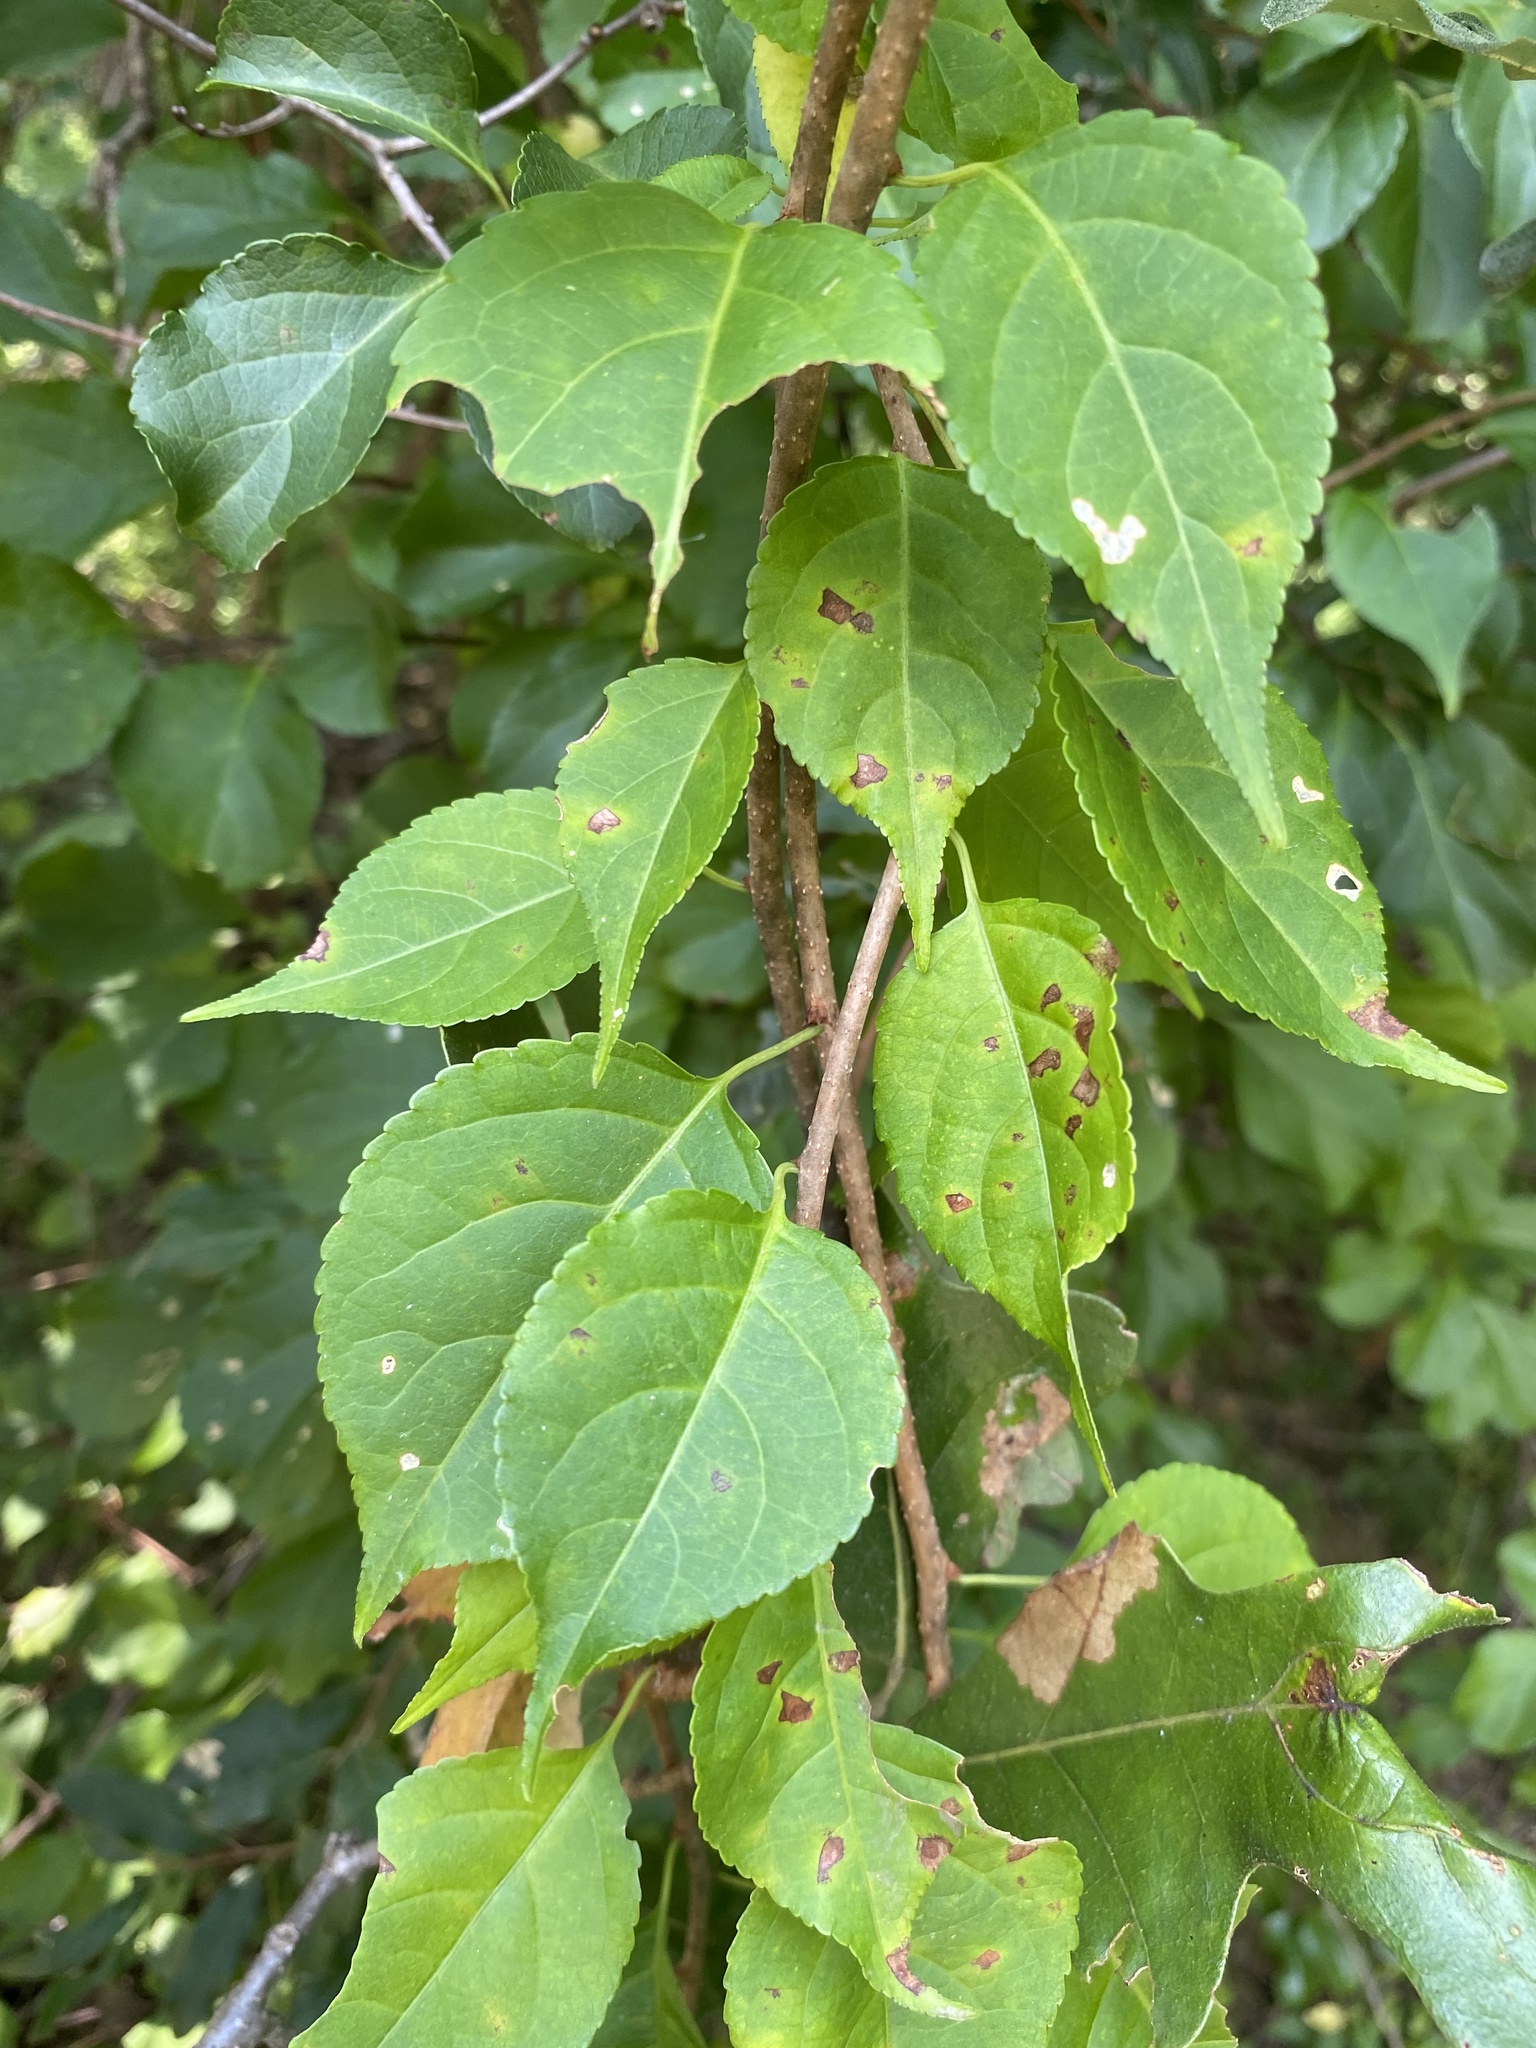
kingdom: Plantae
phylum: Tracheophyta
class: Magnoliopsida
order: Celastrales
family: Celastraceae
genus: Celastrus
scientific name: Celastrus orbiculatus
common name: Oriental bittersweet
